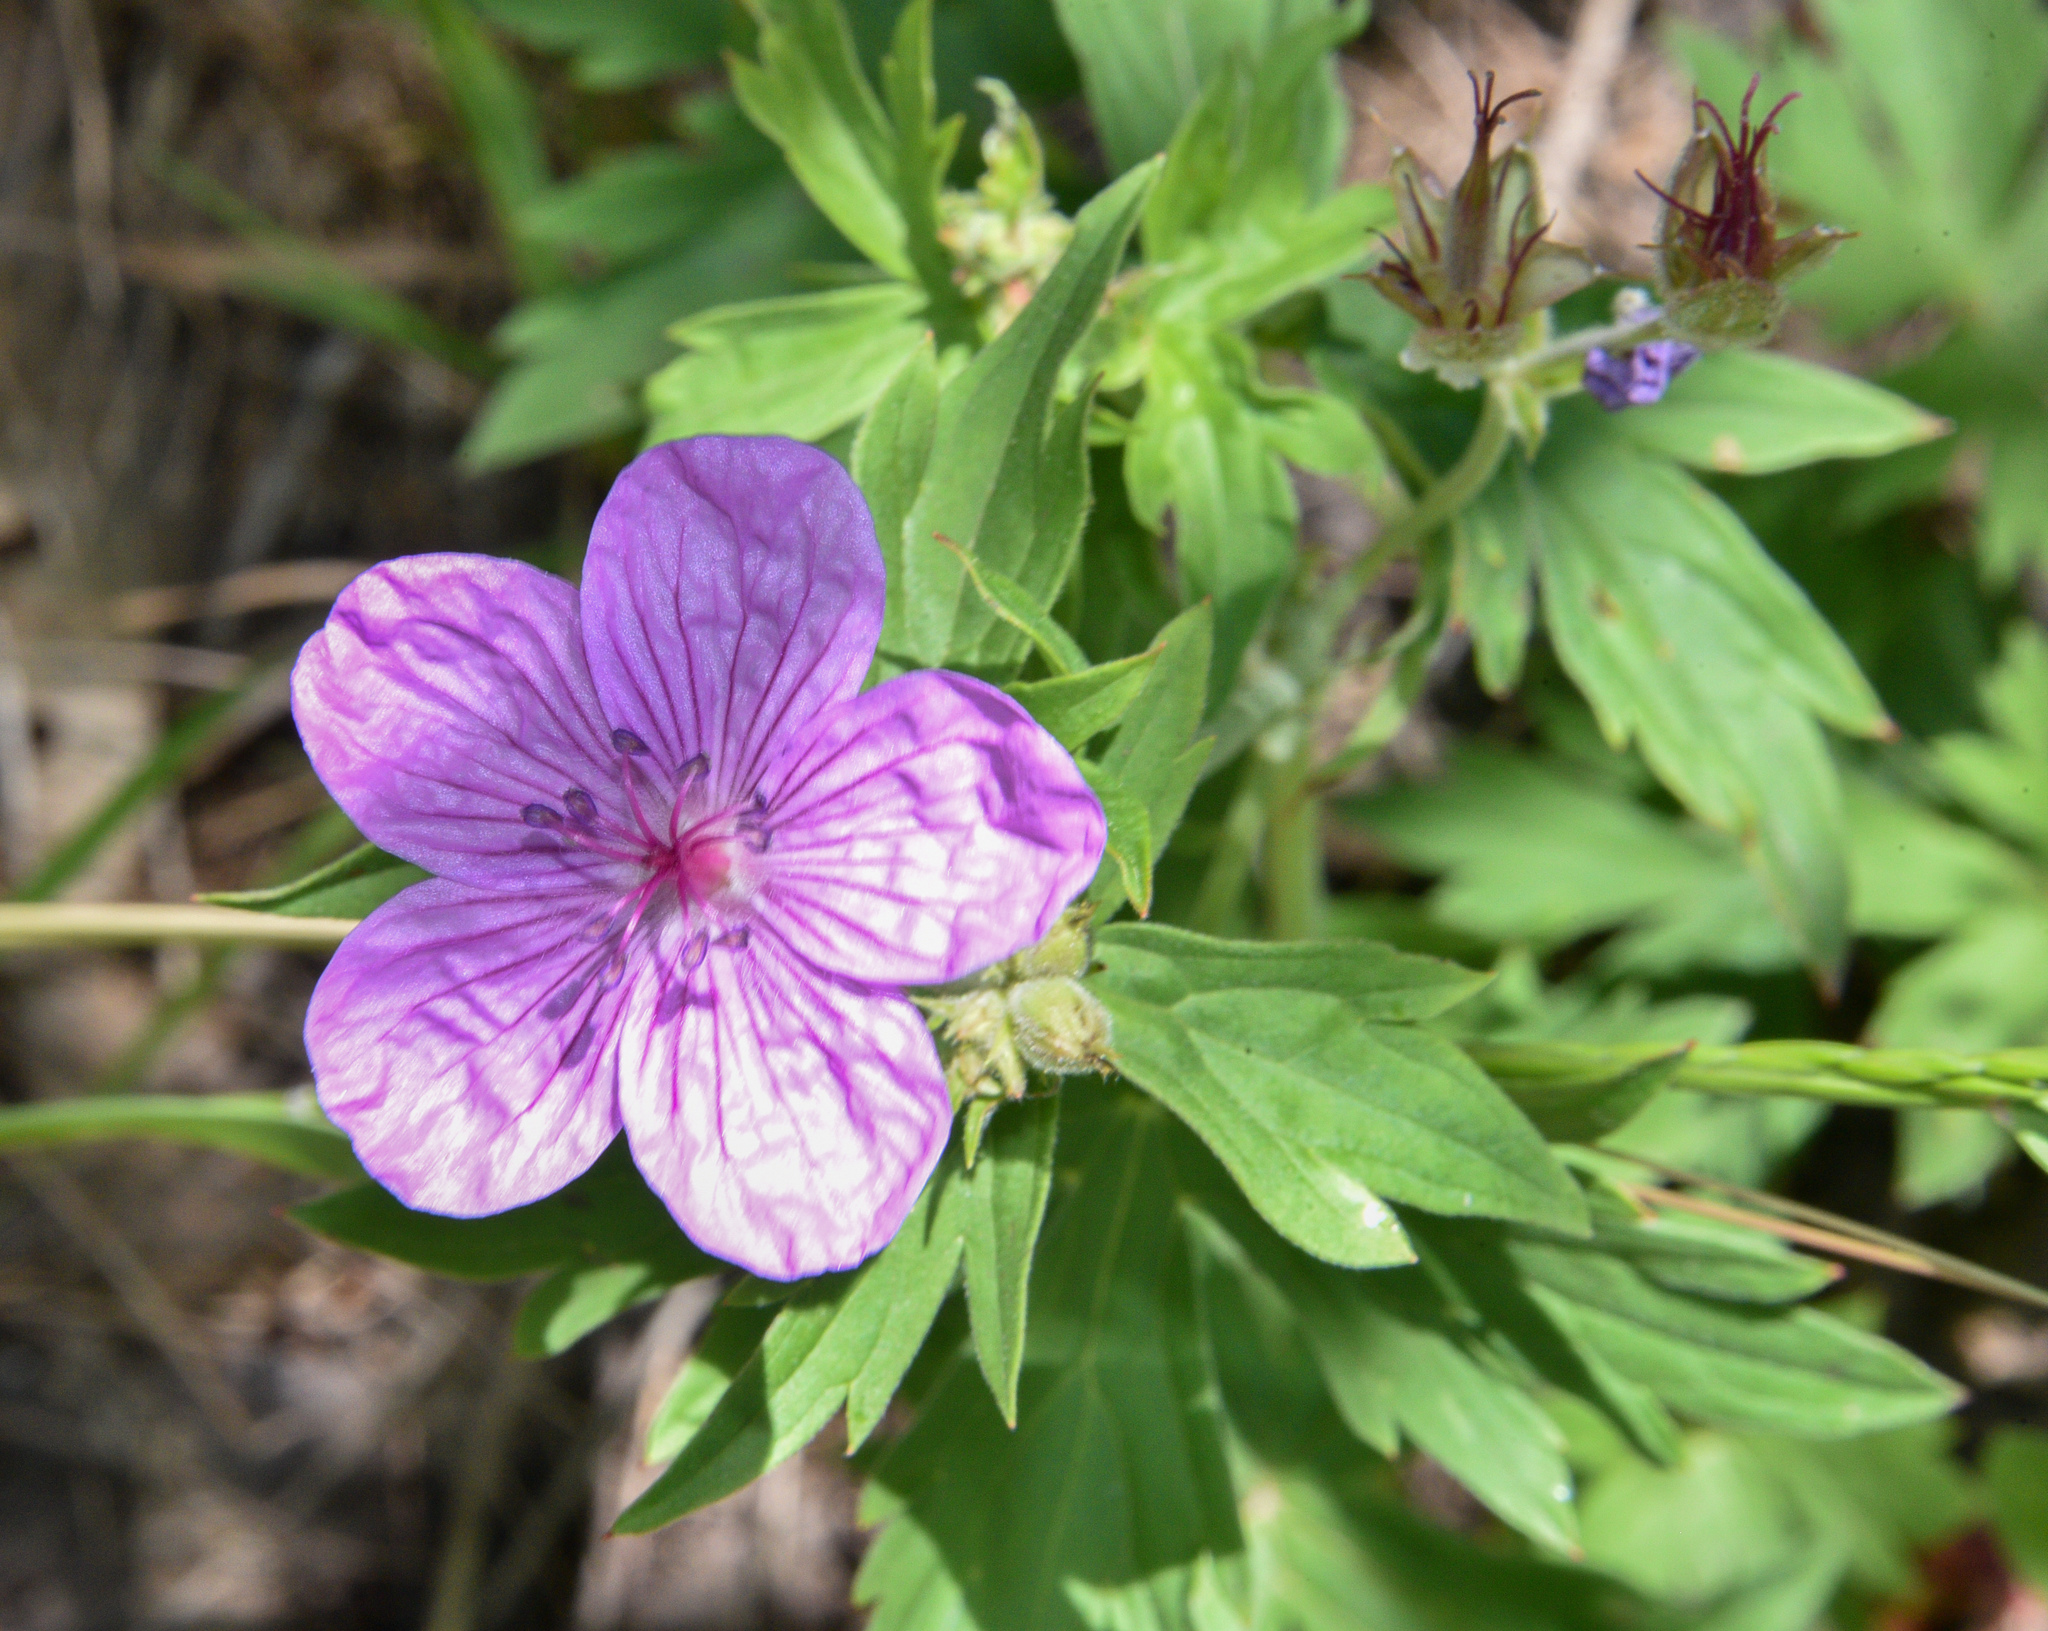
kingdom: Plantae
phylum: Tracheophyta
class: Magnoliopsida
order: Geraniales
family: Geraniaceae
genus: Geranium
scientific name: Geranium richardsonii
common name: Richardson's crane's-bill
